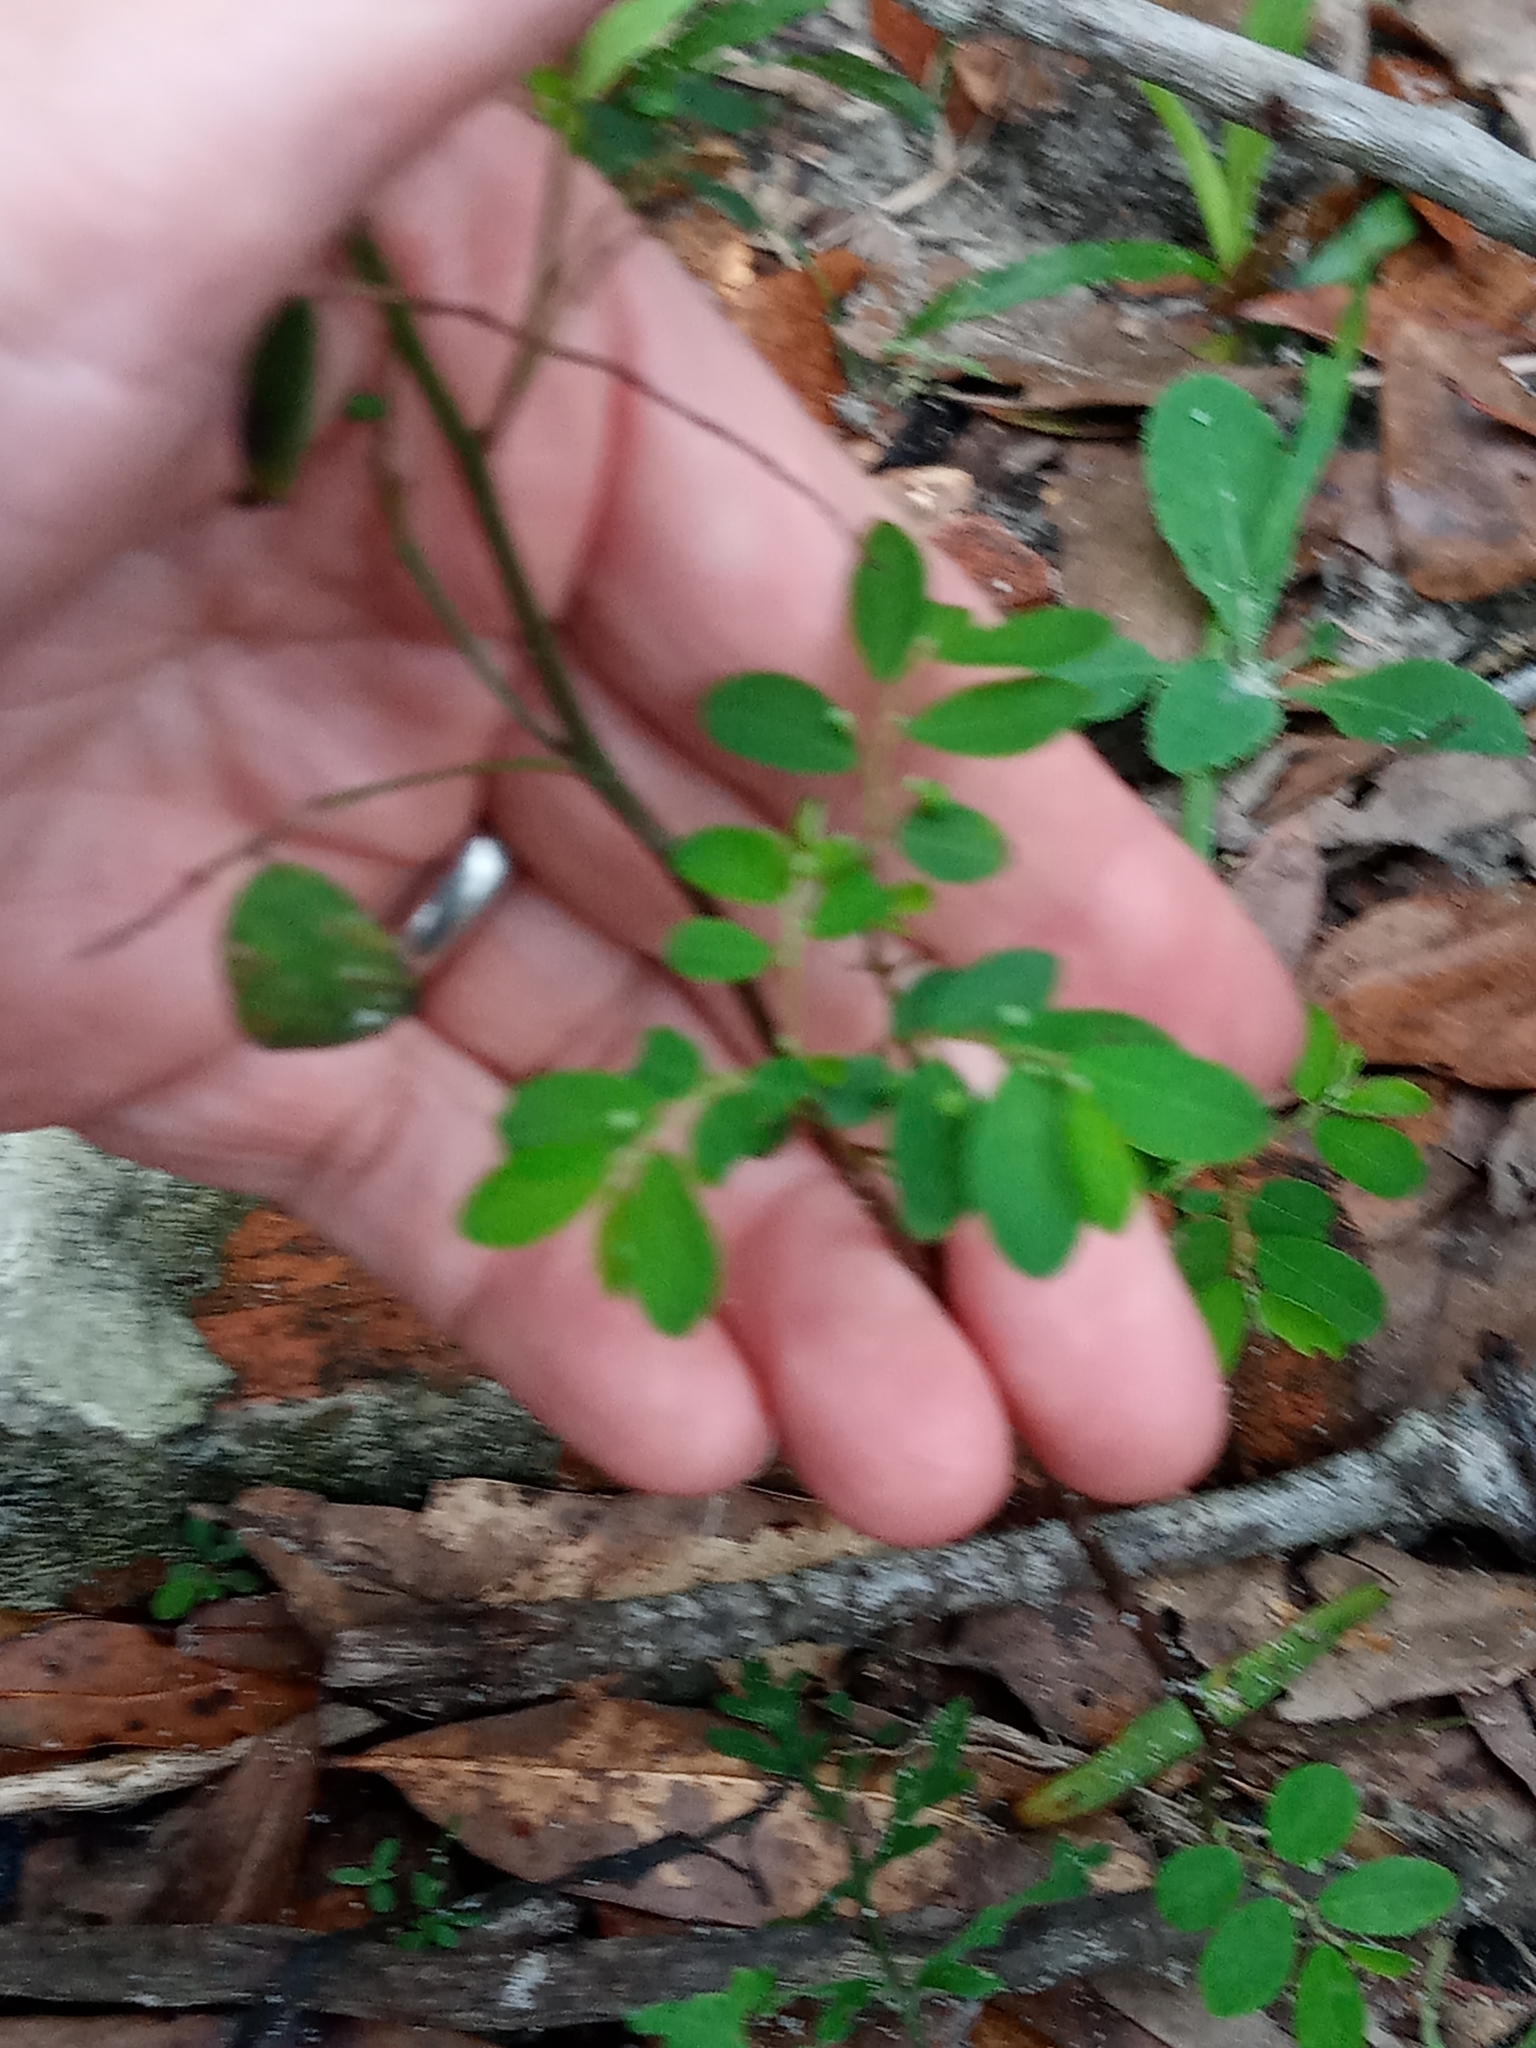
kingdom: Plantae
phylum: Tracheophyta
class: Magnoliopsida
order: Malpighiales
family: Phyllanthaceae
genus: Phyllanthus
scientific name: Phyllanthus tenellus
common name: Mascarene island leaf-flower
